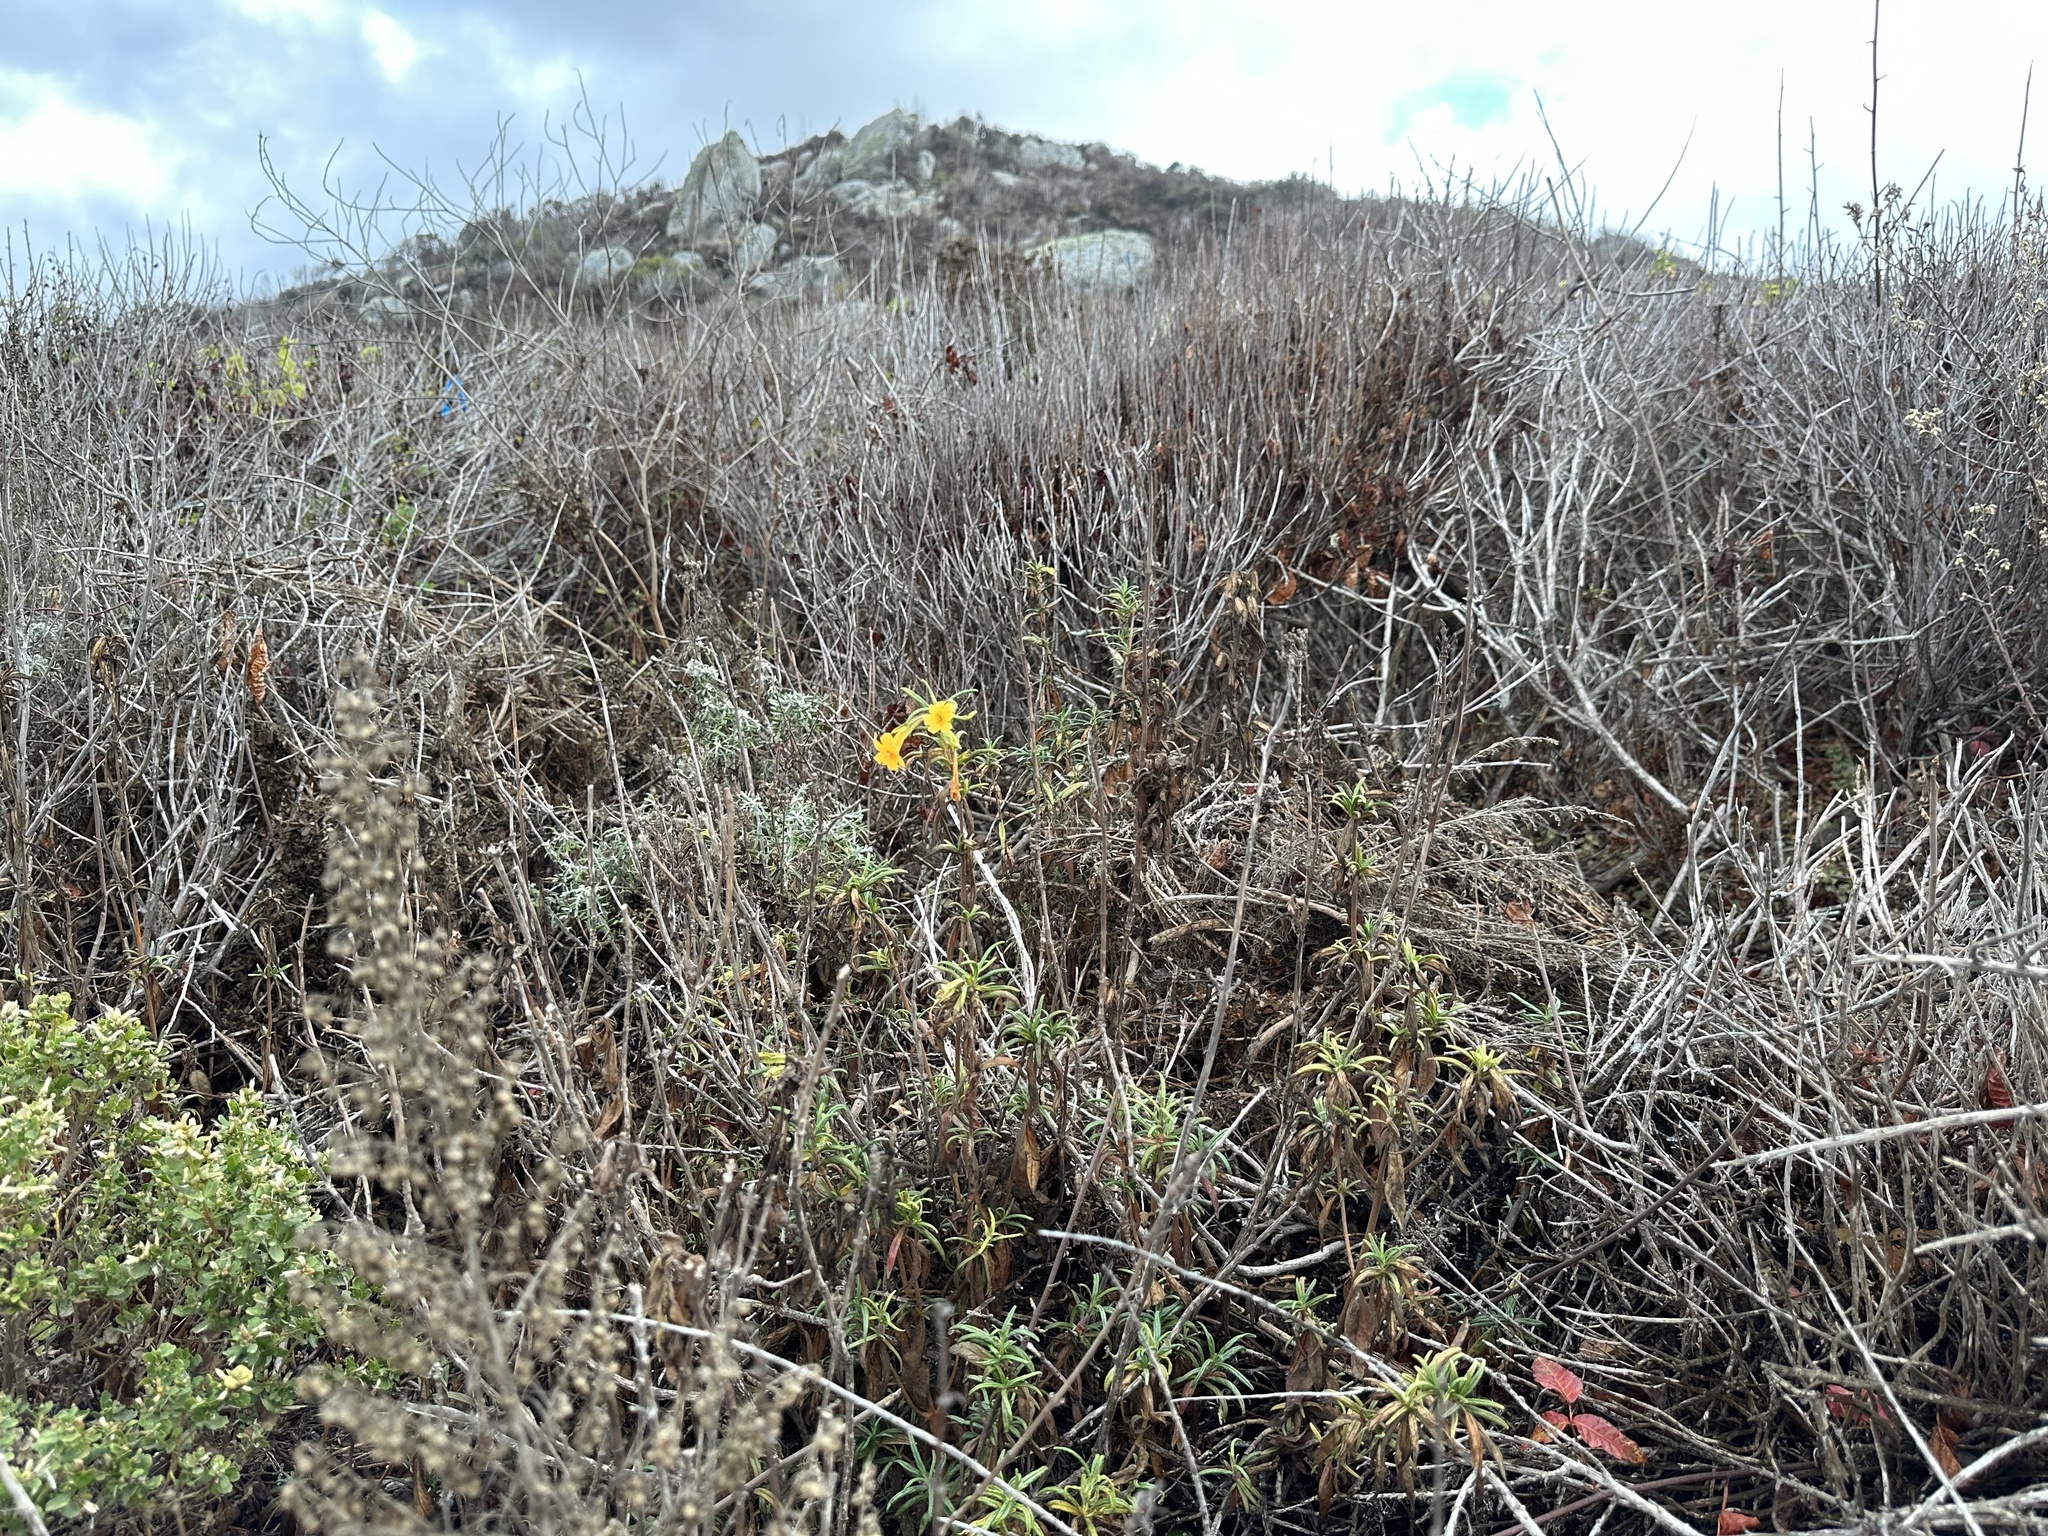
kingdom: Plantae
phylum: Tracheophyta
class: Magnoliopsida
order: Lamiales
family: Phrymaceae
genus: Diplacus
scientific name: Diplacus aurantiacus
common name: Bush monkey-flower
